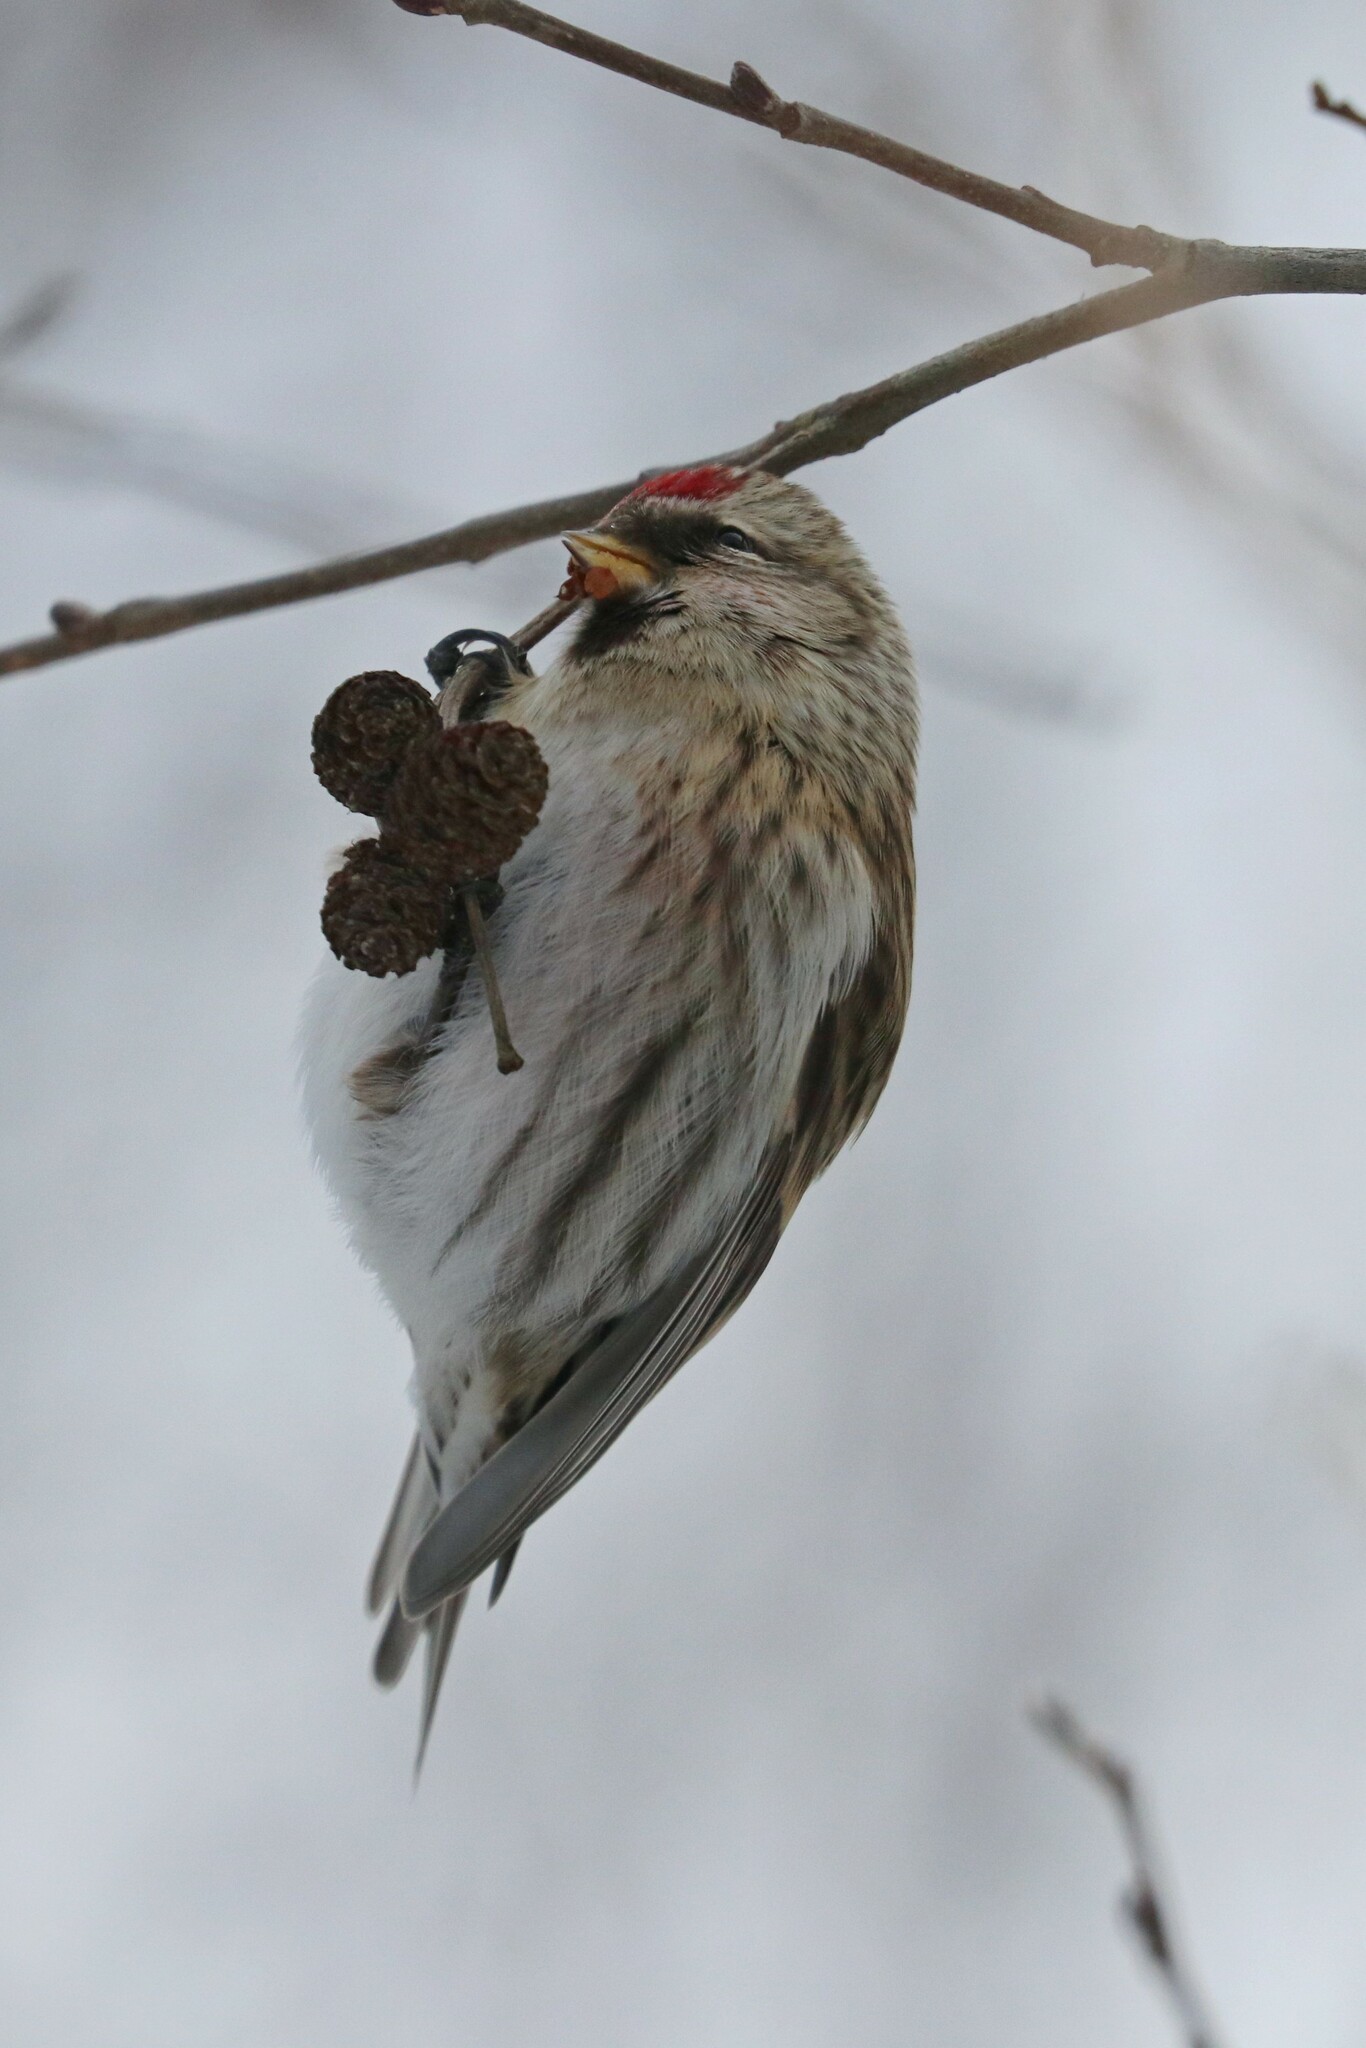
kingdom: Animalia
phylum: Chordata
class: Aves
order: Passeriformes
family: Fringillidae
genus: Acanthis
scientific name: Acanthis flammea
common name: Common redpoll
